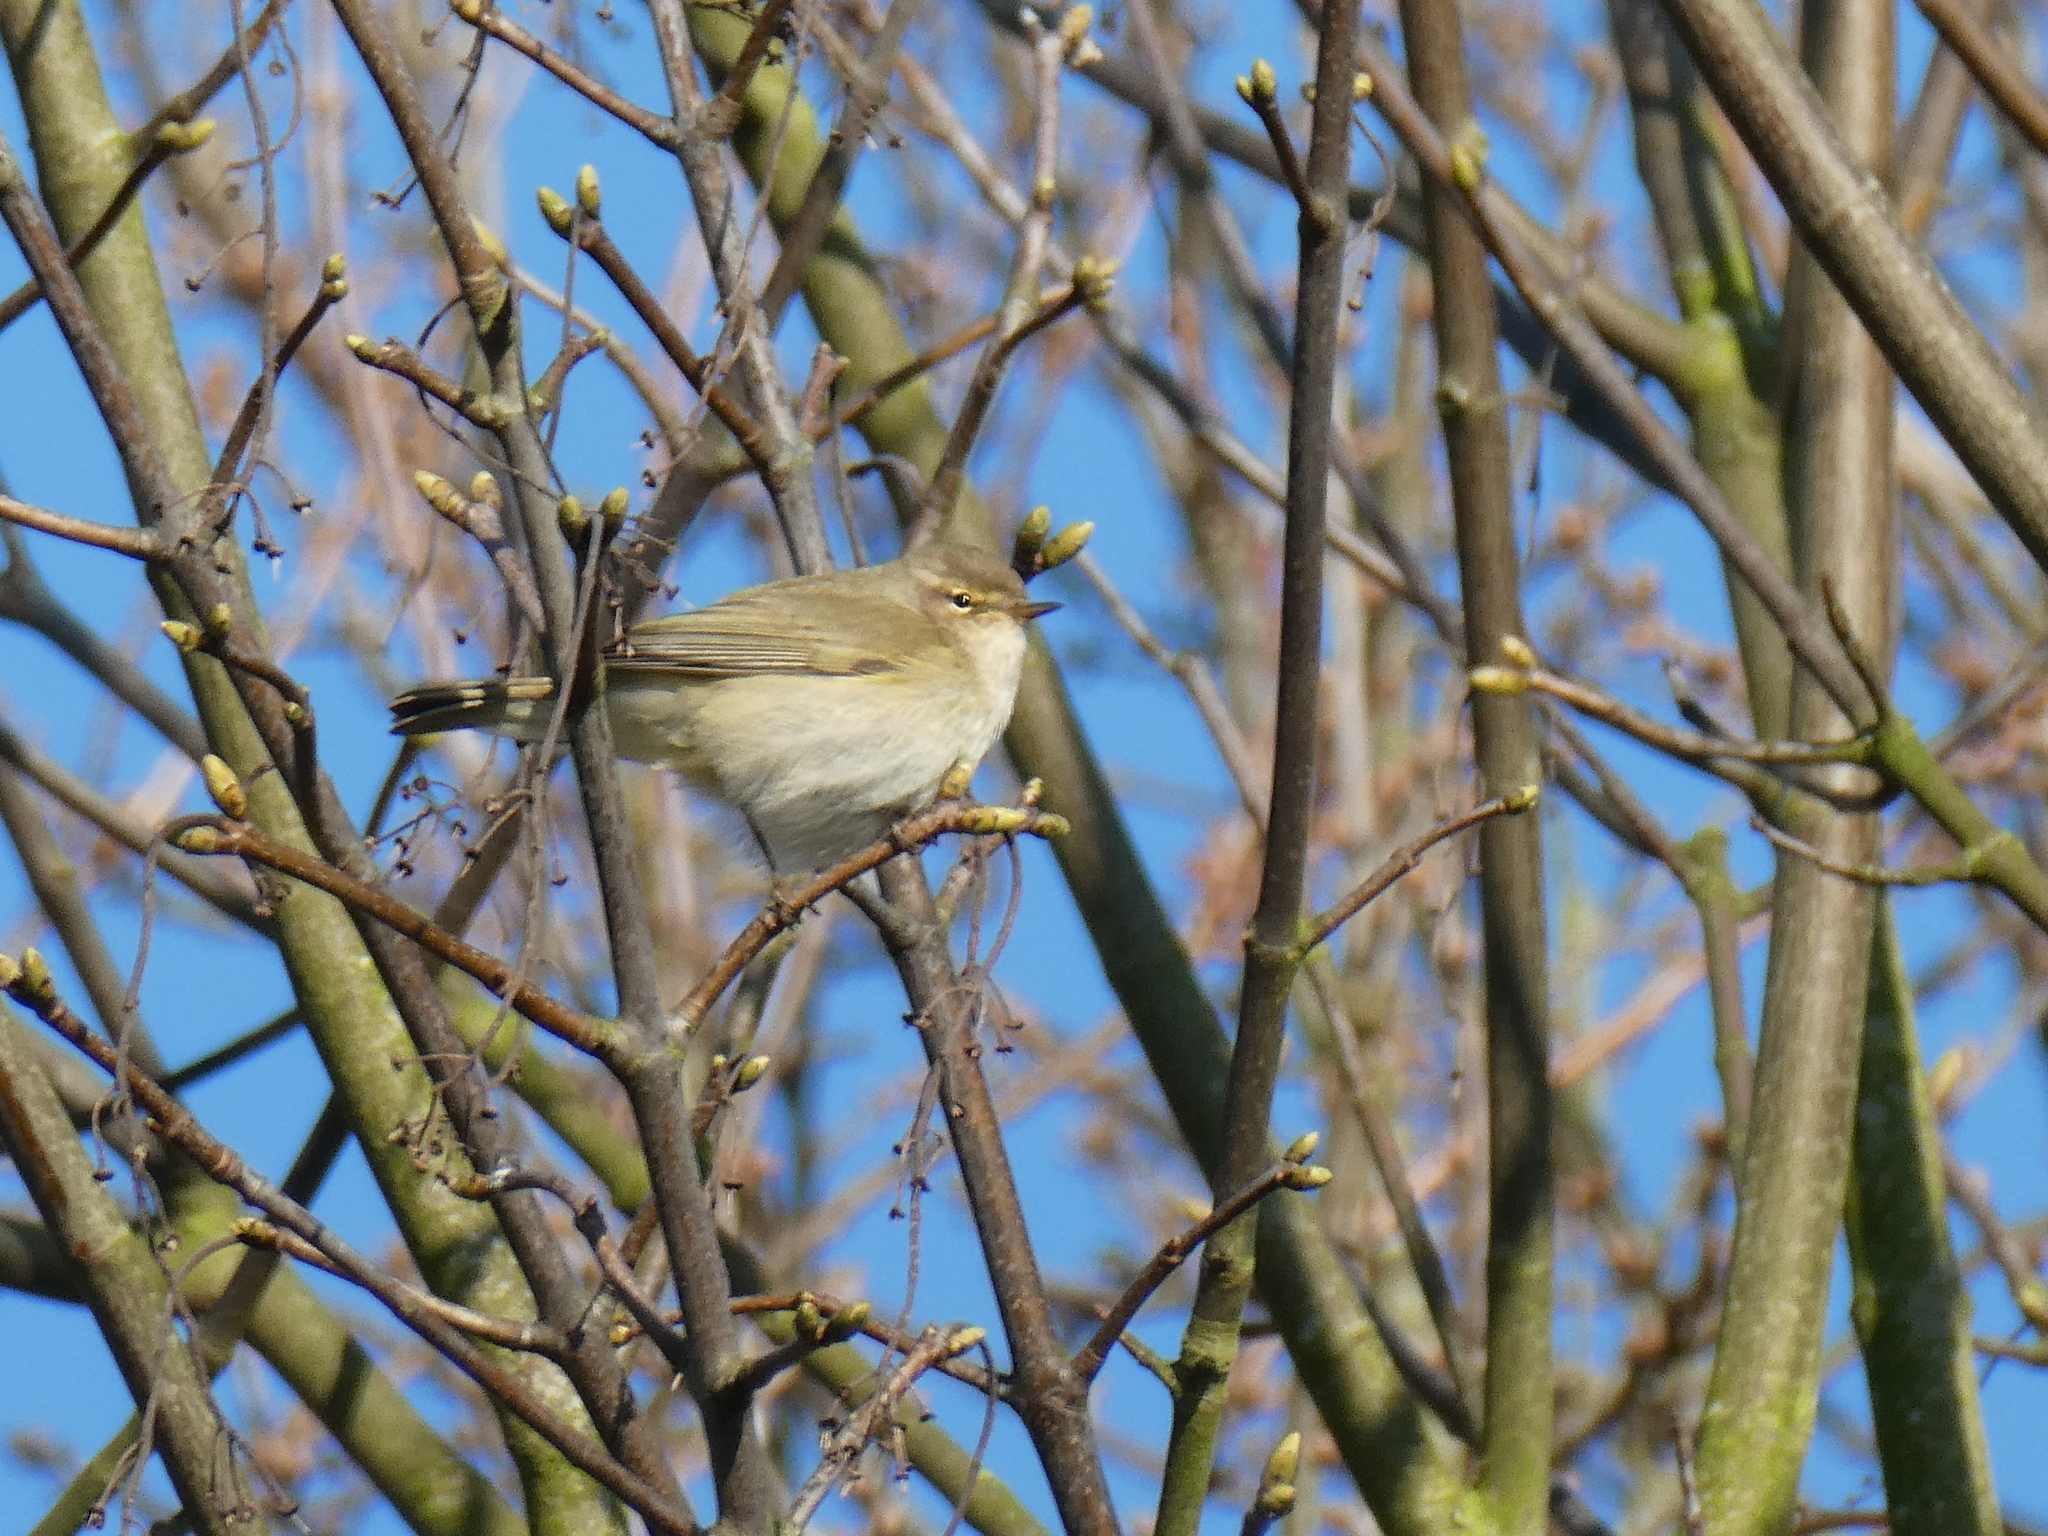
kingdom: Animalia
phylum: Chordata
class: Aves
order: Passeriformes
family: Phylloscopidae
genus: Phylloscopus
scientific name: Phylloscopus collybita
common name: Common chiffchaff
